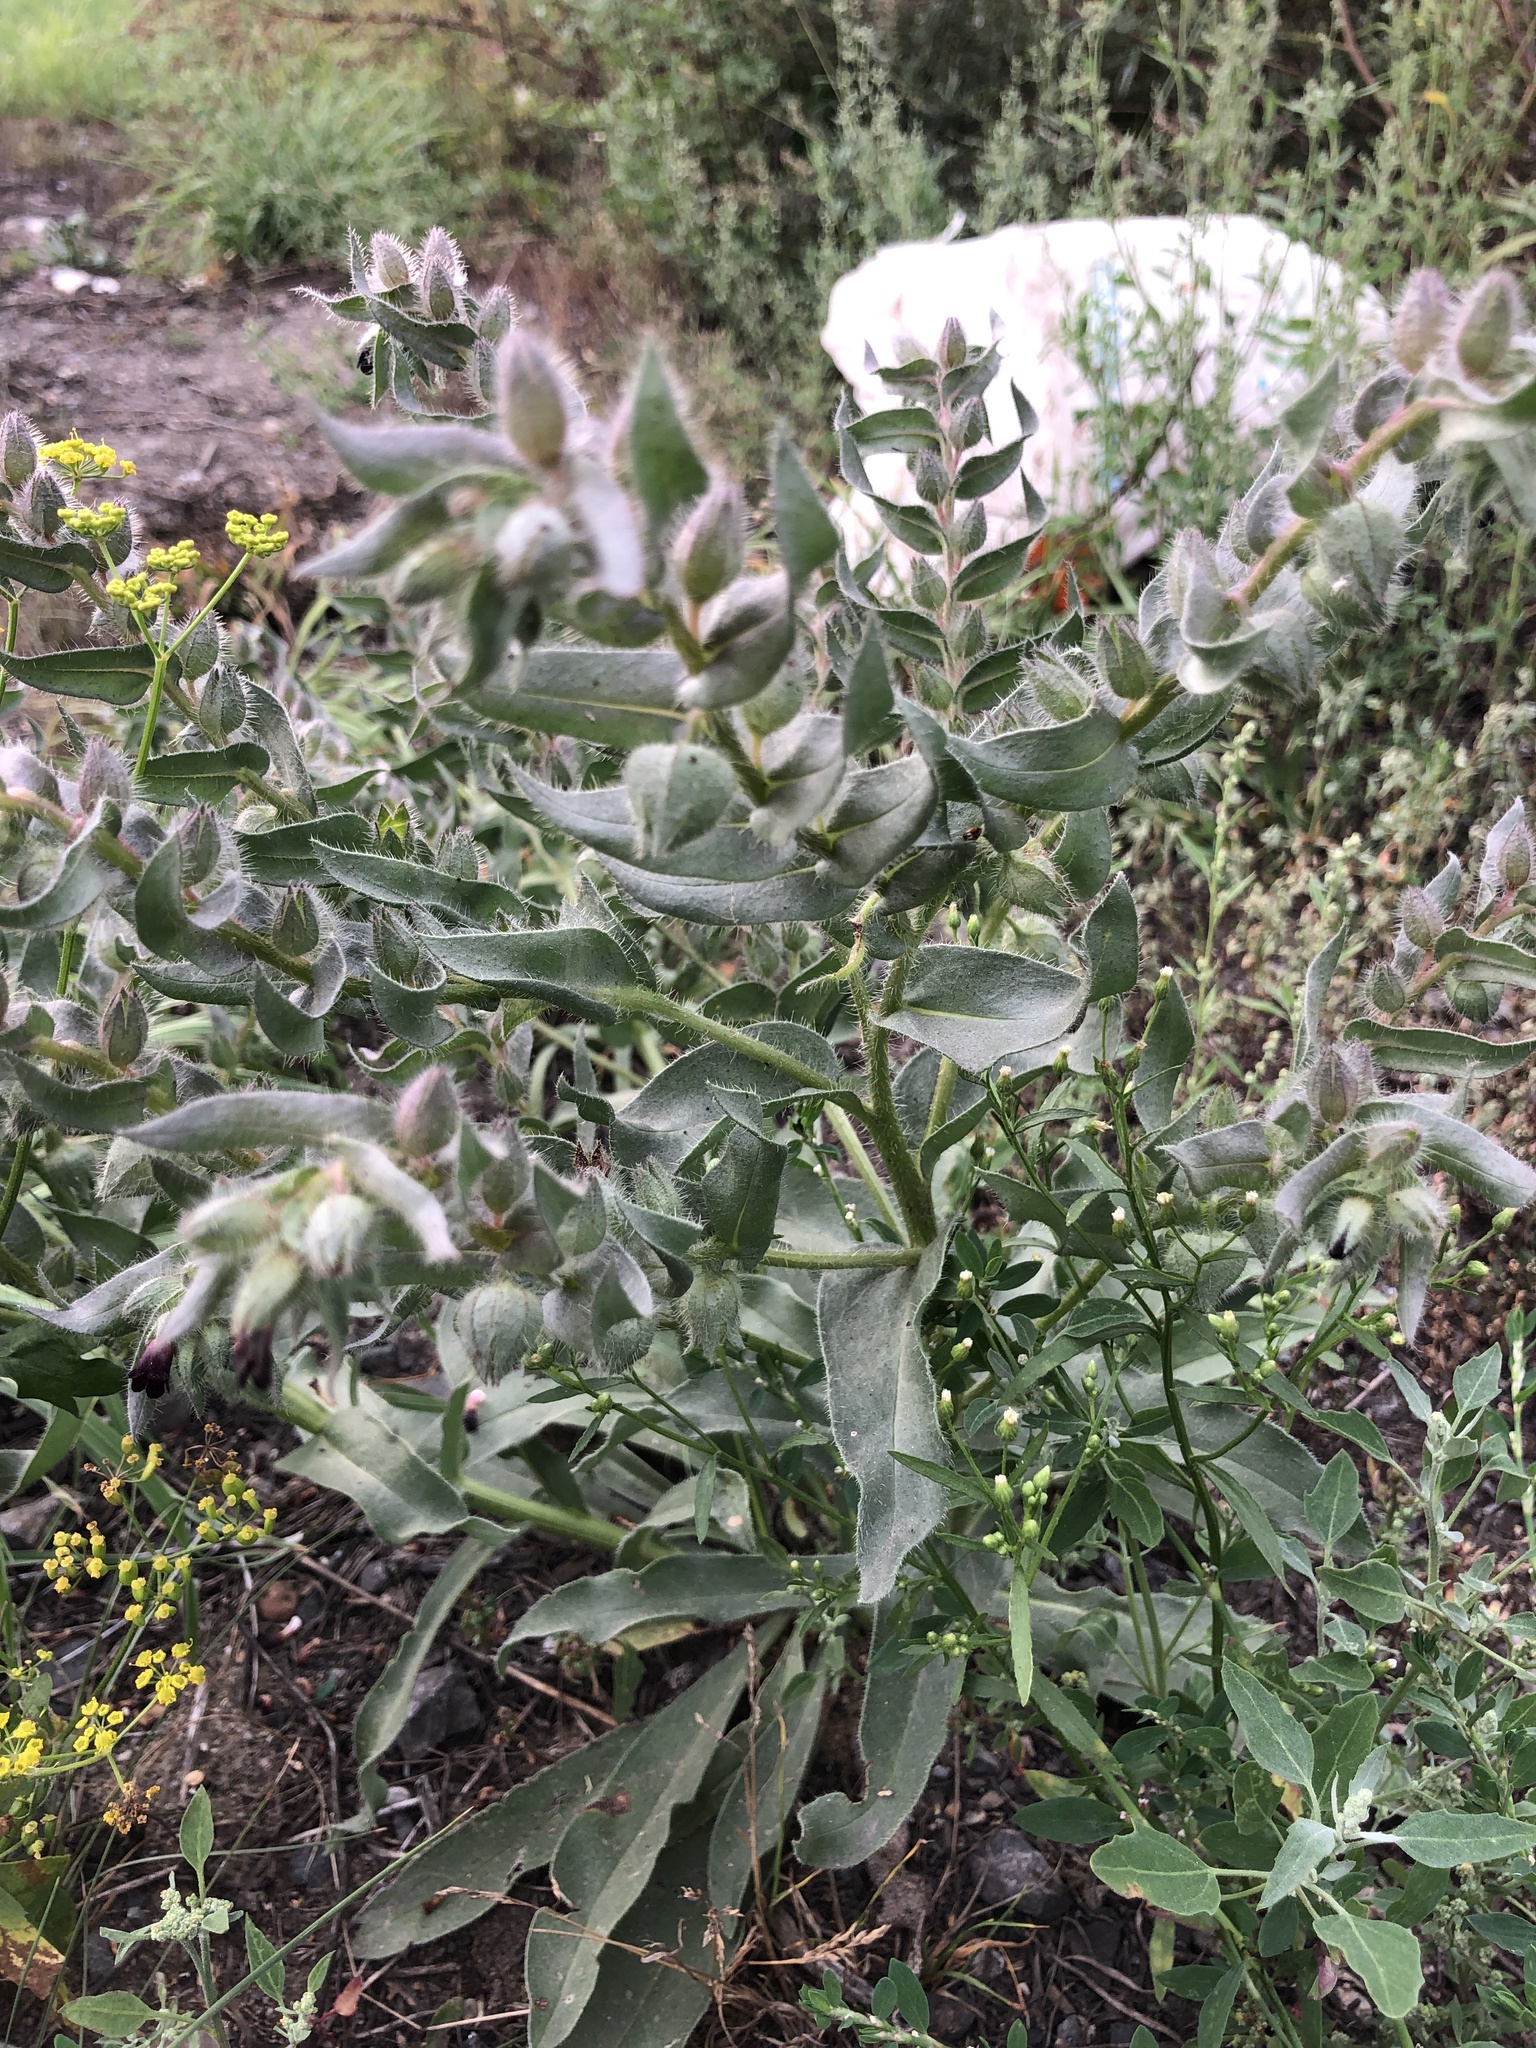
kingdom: Plantae
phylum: Tracheophyta
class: Magnoliopsida
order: Boraginales
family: Boraginaceae
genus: Nonea
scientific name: Nonea pulla
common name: Brown nonea
